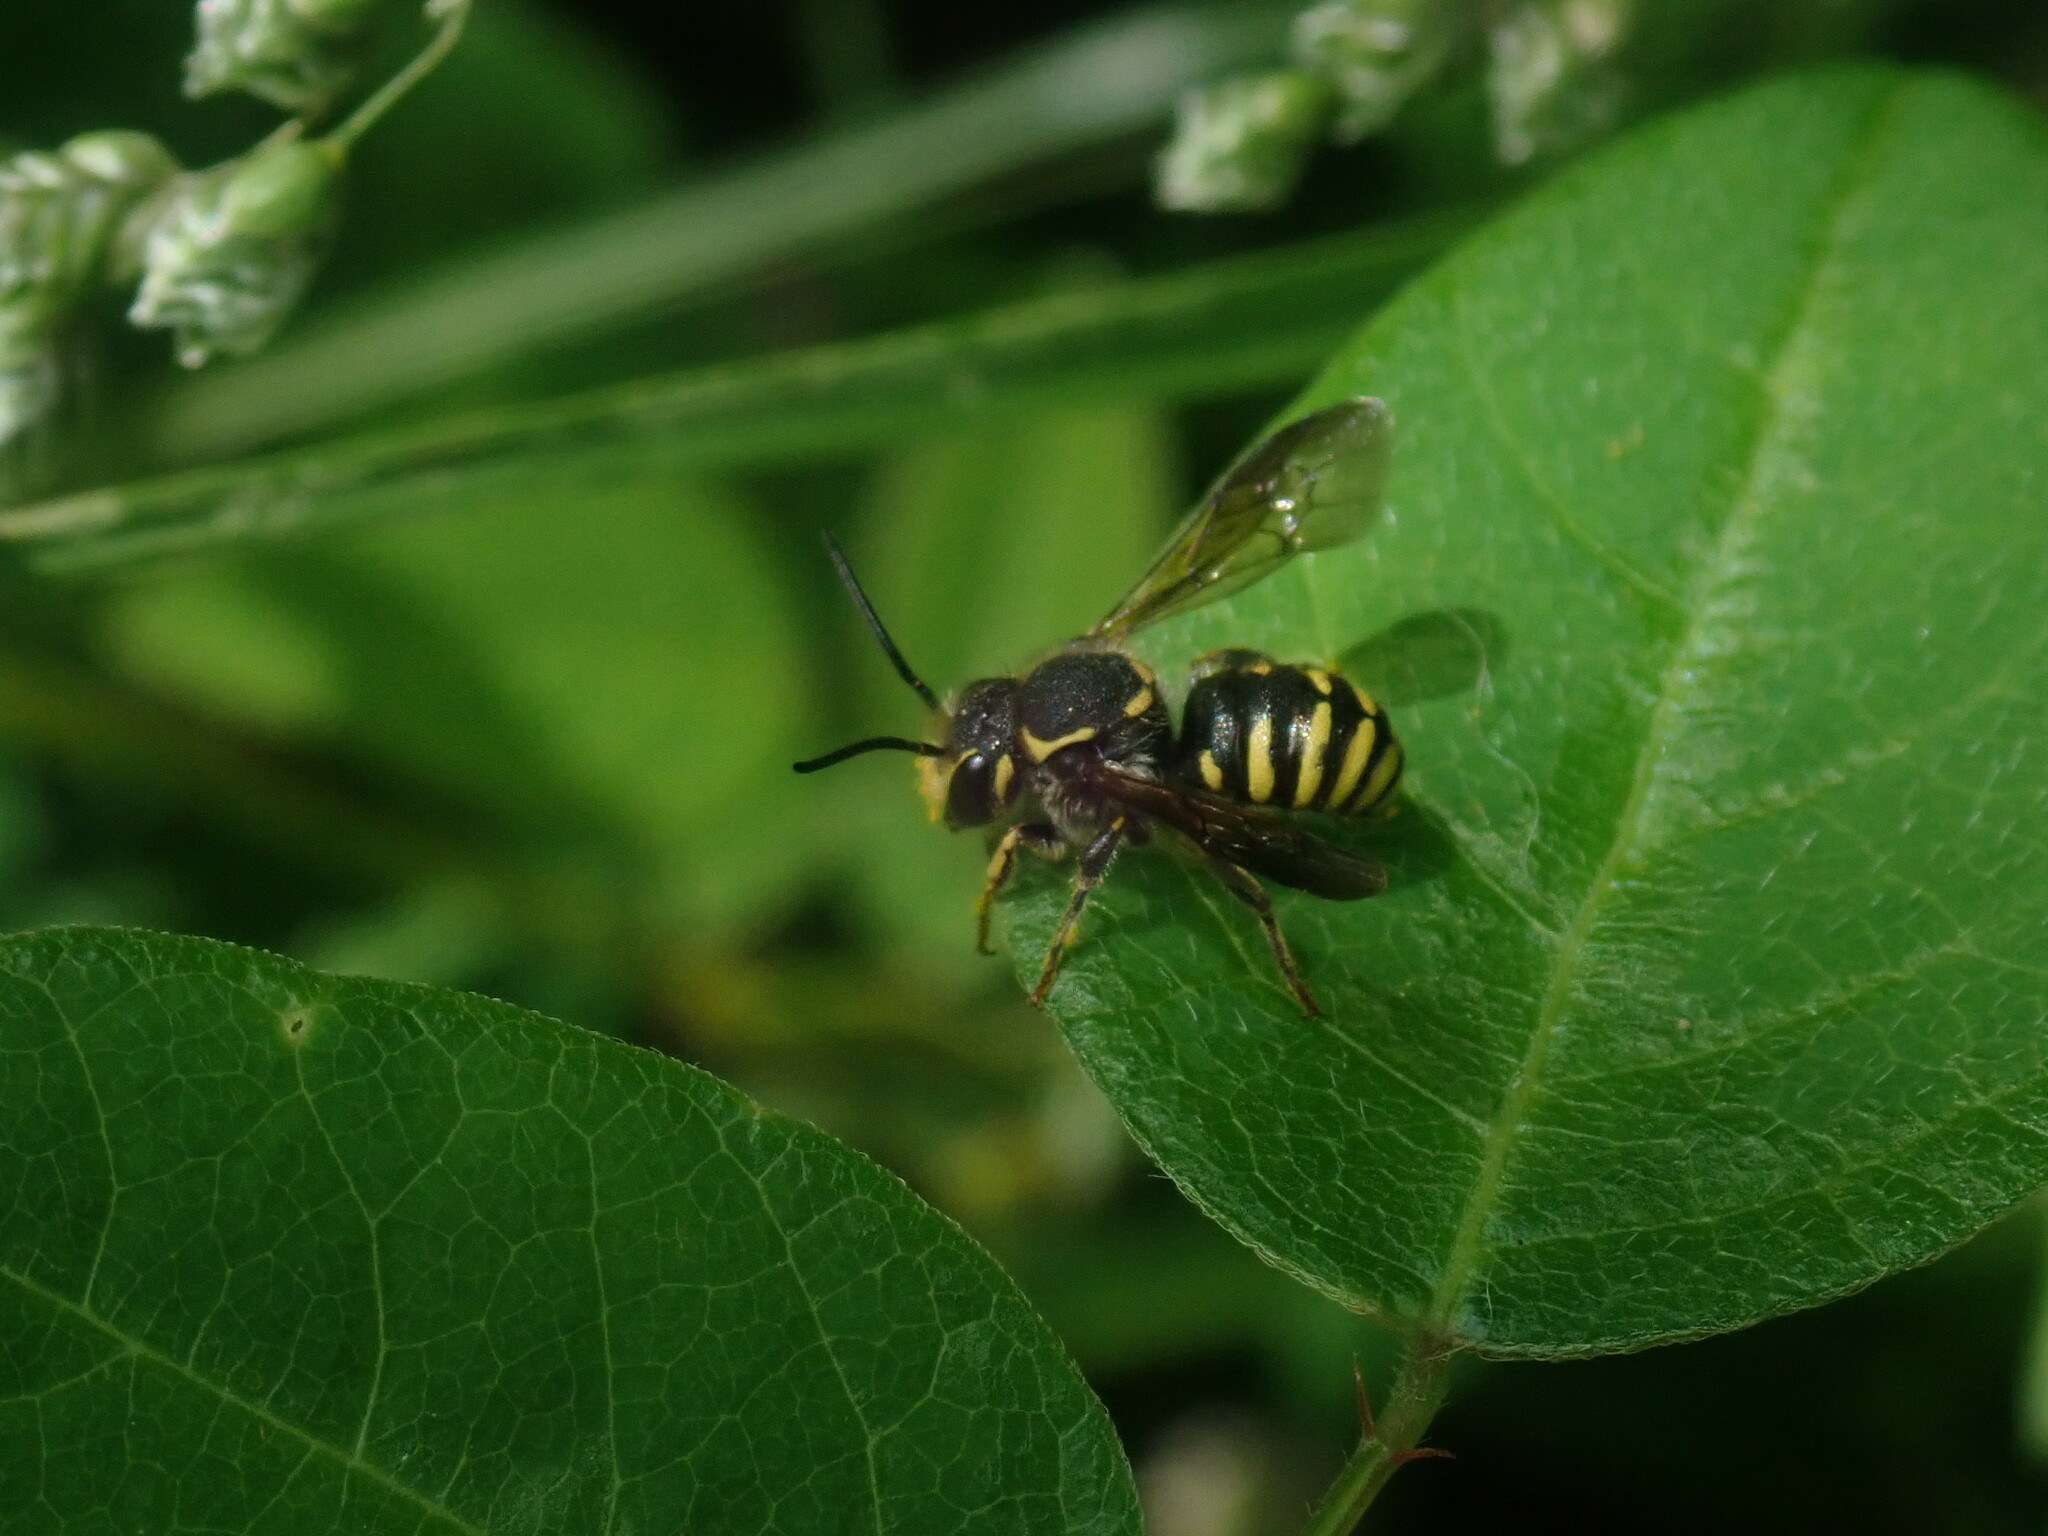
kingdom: Animalia
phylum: Arthropoda
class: Insecta
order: Hymenoptera
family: Megachilidae
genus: Paranthidium
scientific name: Paranthidium gabbii
